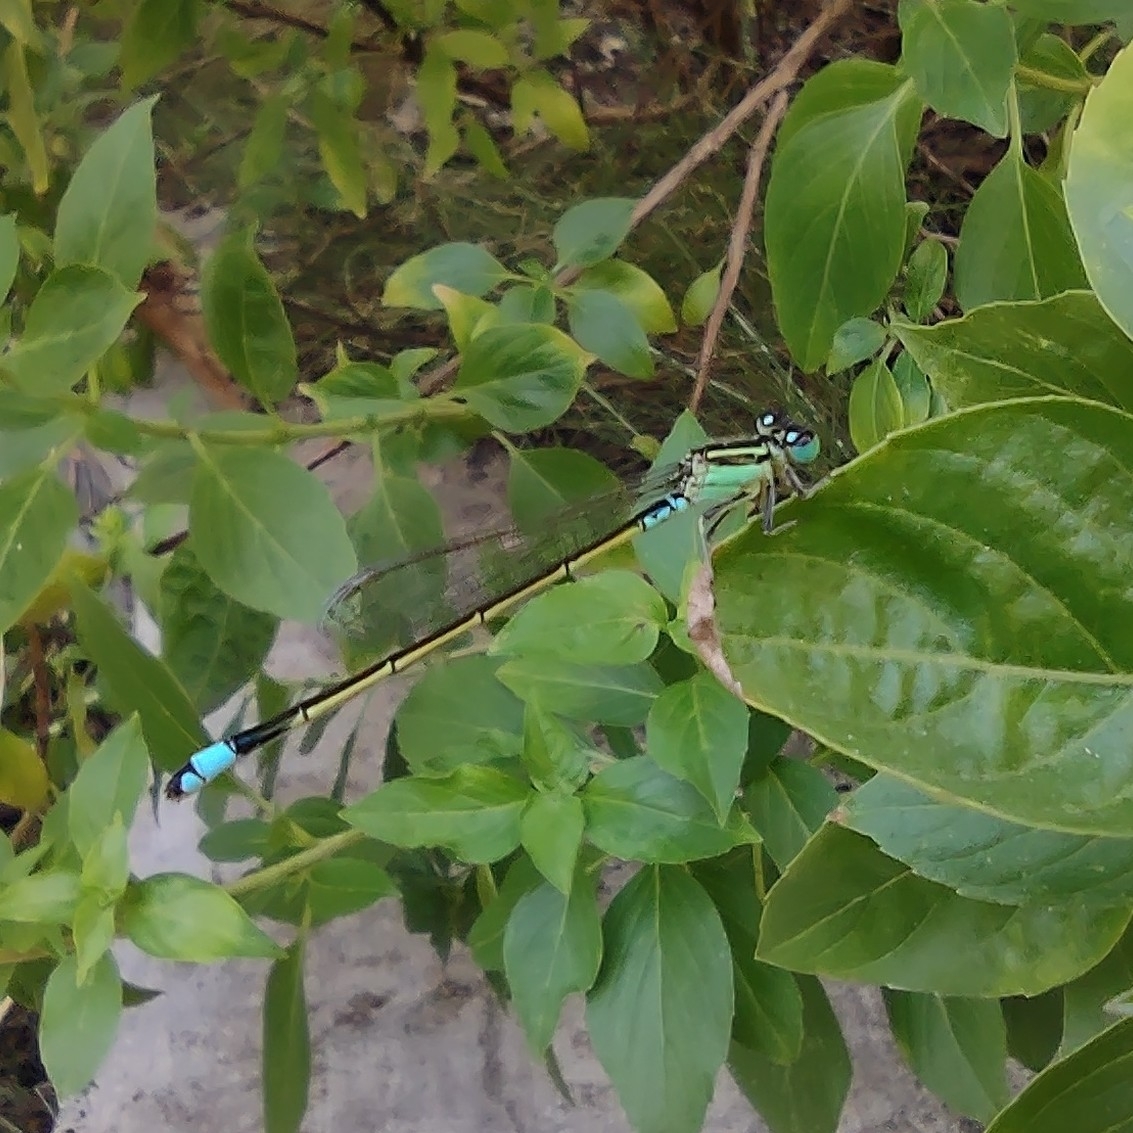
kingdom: Animalia
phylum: Arthropoda
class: Insecta
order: Odonata
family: Coenagrionidae
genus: Ischnura
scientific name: Ischnura senegalensis
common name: Tropical bluetail
